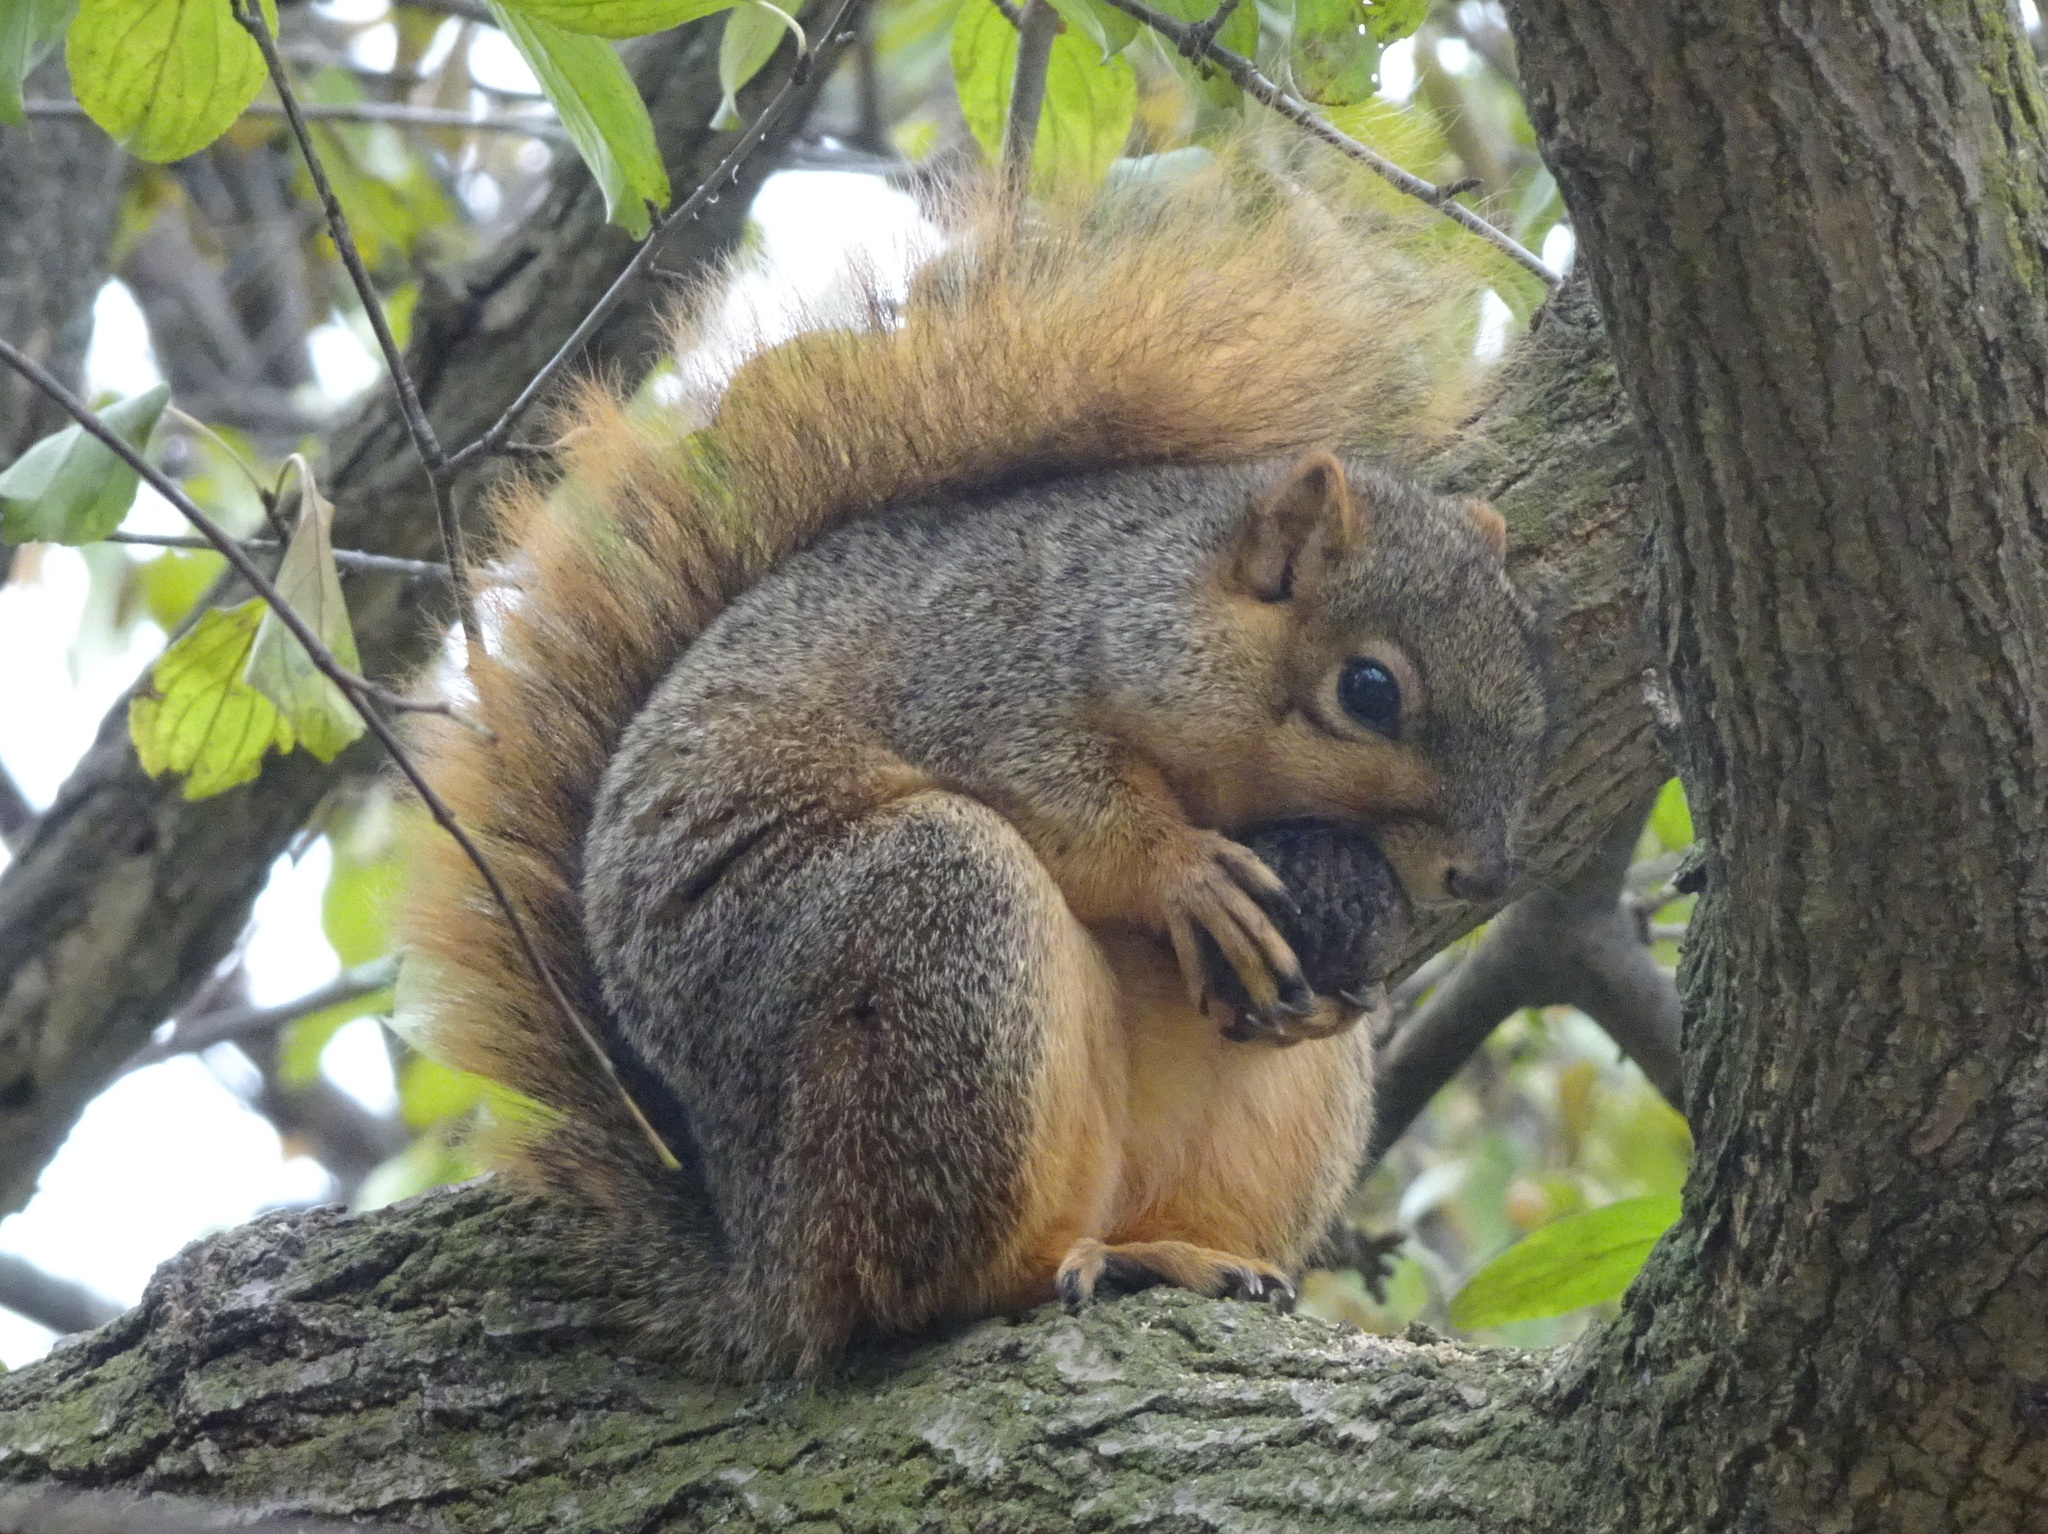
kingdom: Animalia
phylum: Chordata
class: Mammalia
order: Rodentia
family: Sciuridae
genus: Sciurus
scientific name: Sciurus niger
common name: Fox squirrel
